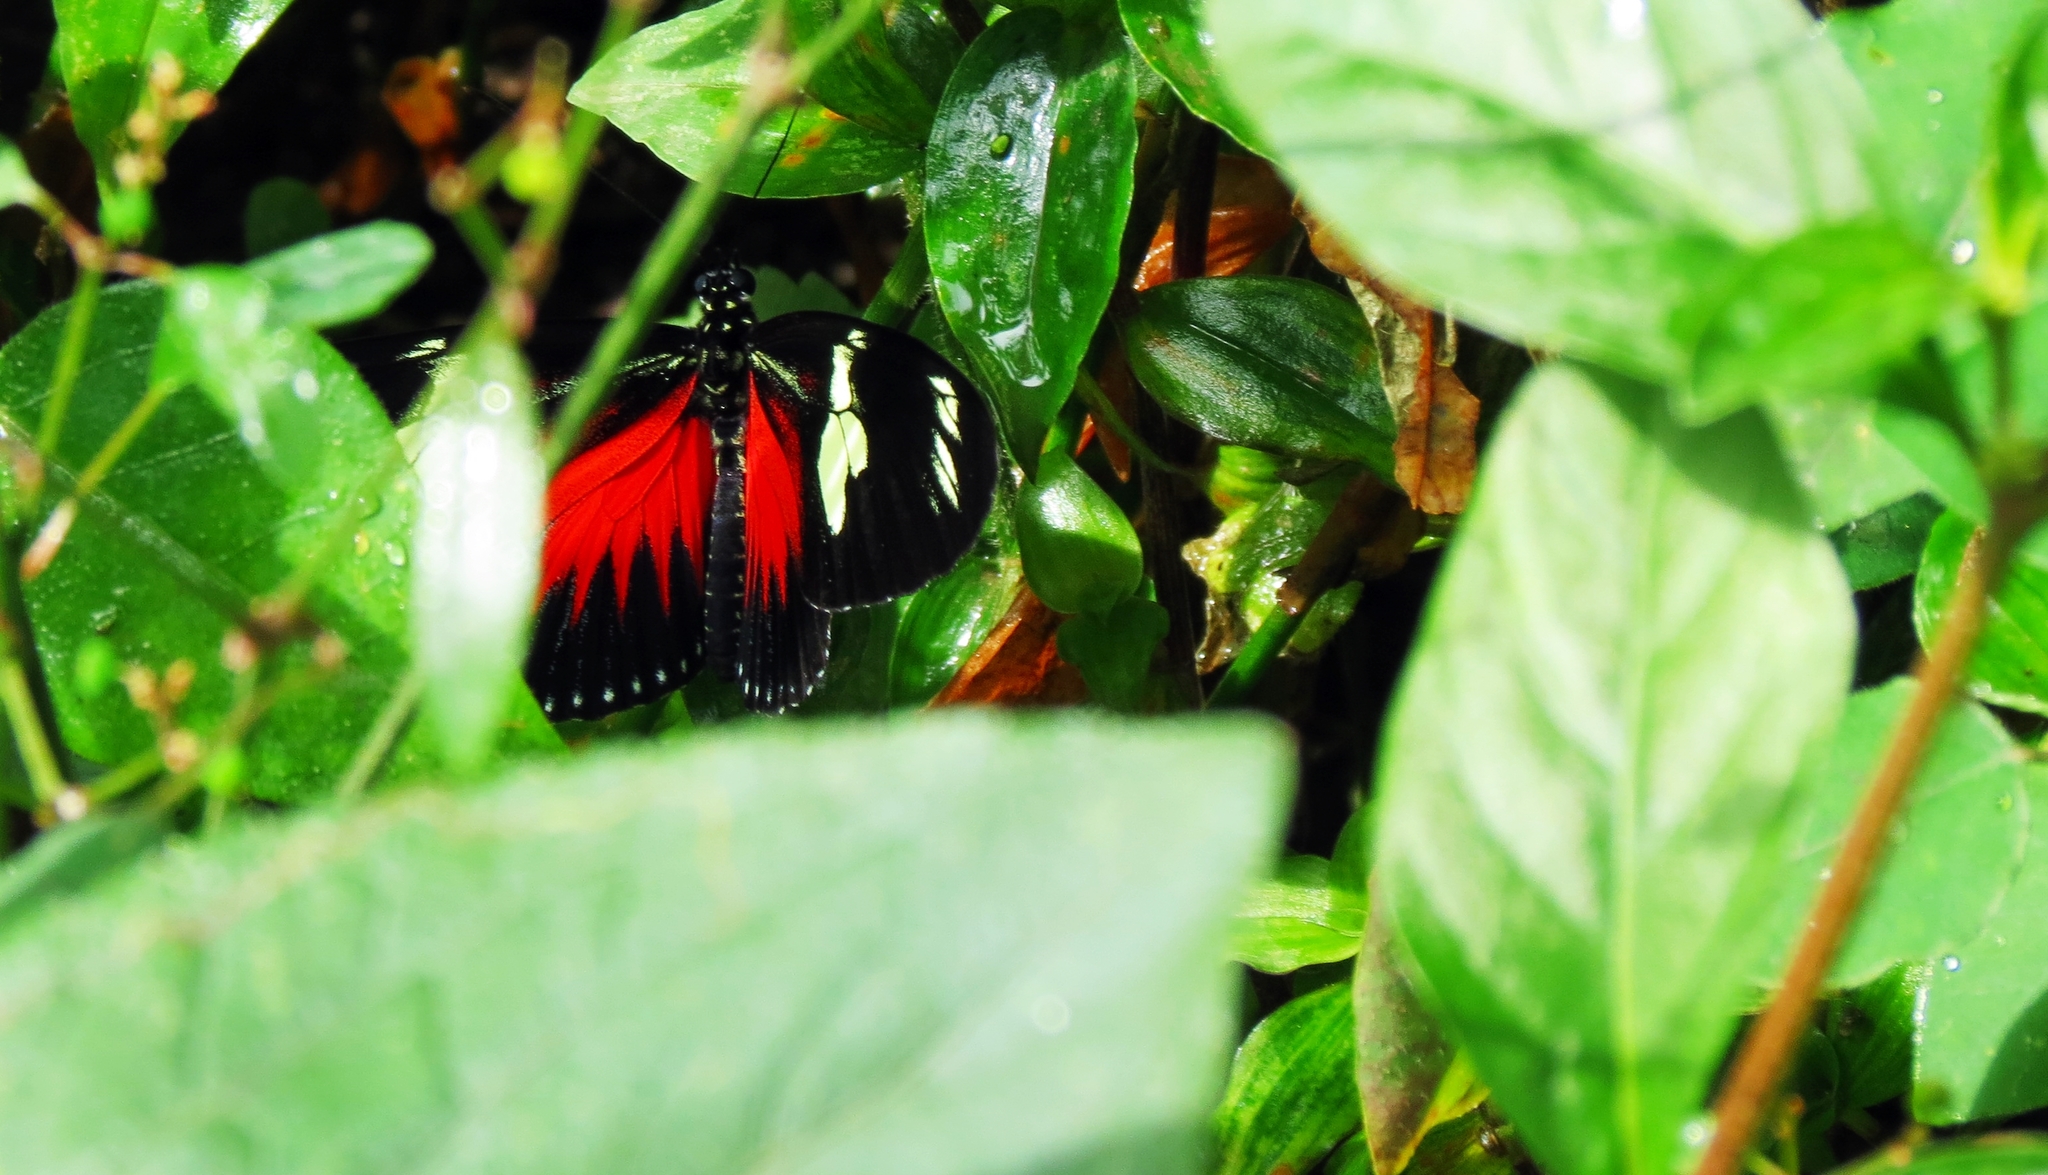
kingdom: Animalia
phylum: Arthropoda
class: Insecta
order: Lepidoptera
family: Nymphalidae
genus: Heliconius
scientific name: Heliconius doris
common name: Doris longwing
